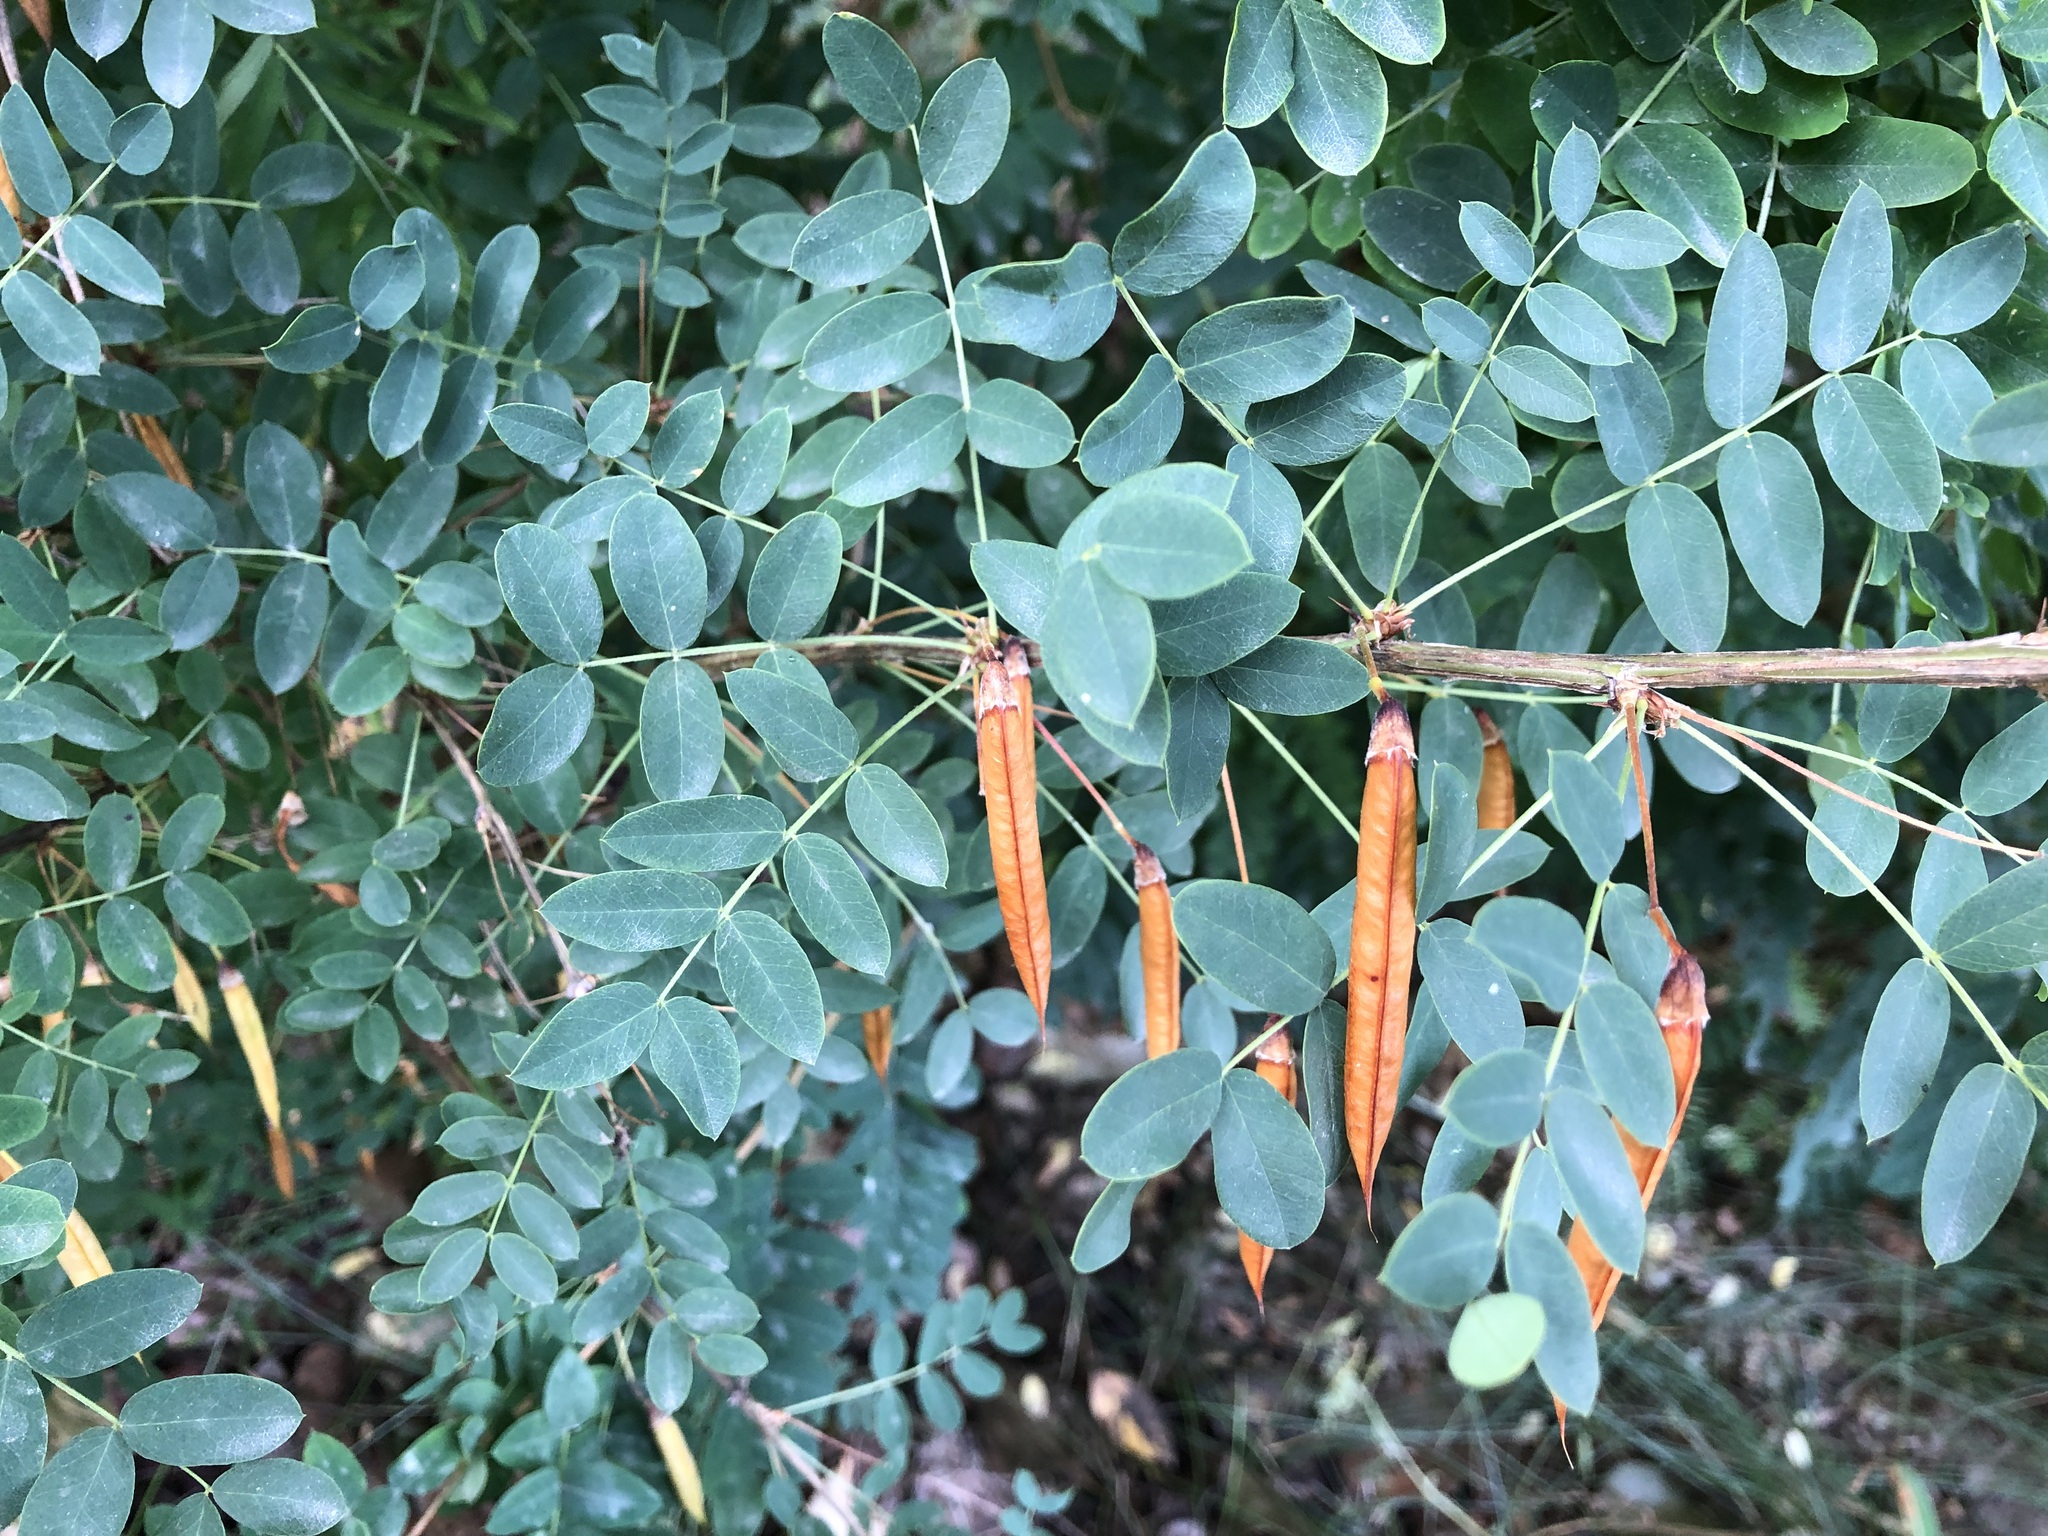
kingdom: Plantae
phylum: Tracheophyta
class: Magnoliopsida
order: Fabales
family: Fabaceae
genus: Caragana
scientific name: Caragana arborescens
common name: Siberian peashrub
